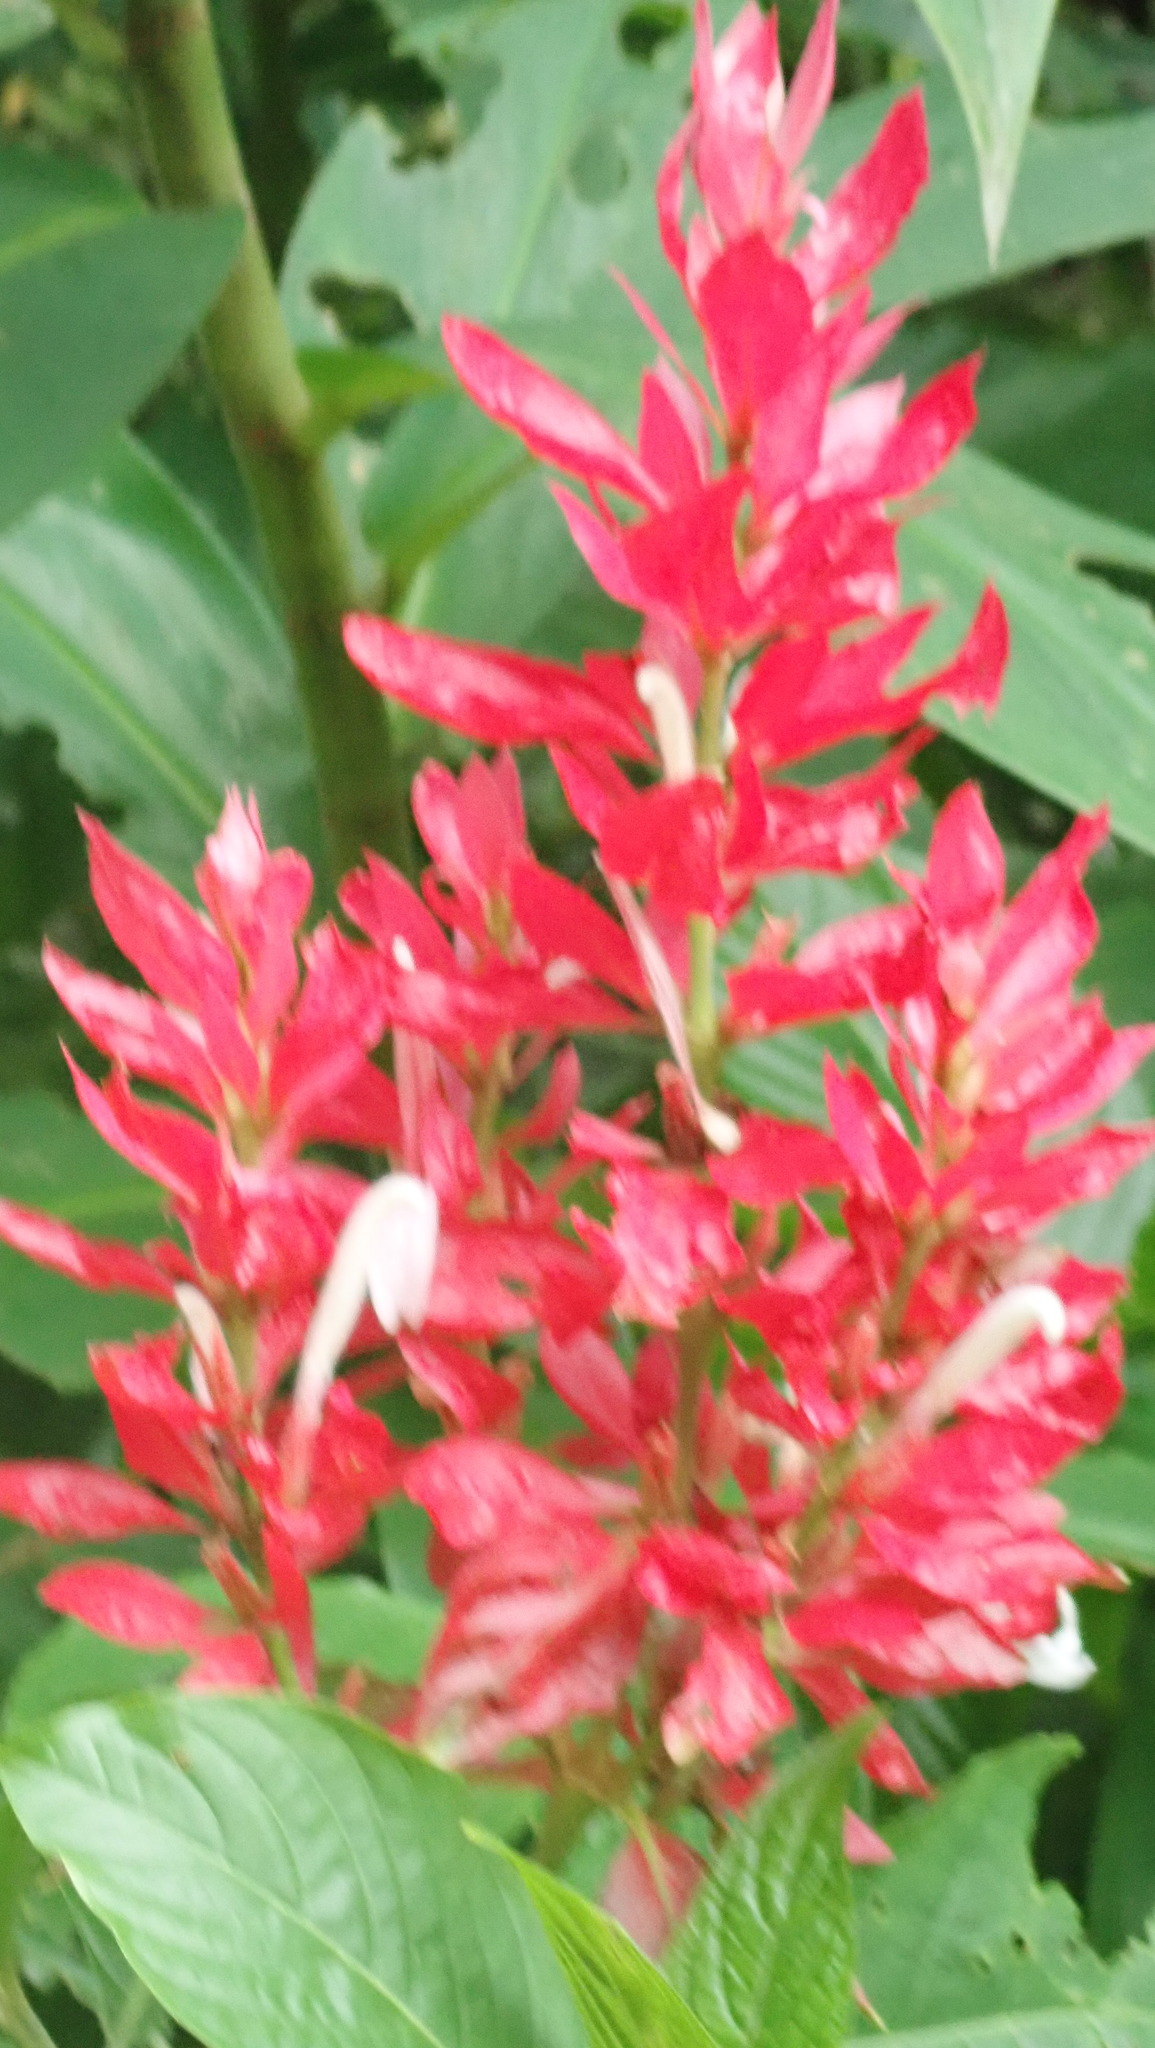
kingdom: Plantae
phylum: Tracheophyta
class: Magnoliopsida
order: Lamiales
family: Acanthaceae
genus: Megaskepasma
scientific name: Megaskepasma erythrochlamys
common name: Brazilian red-cloak
